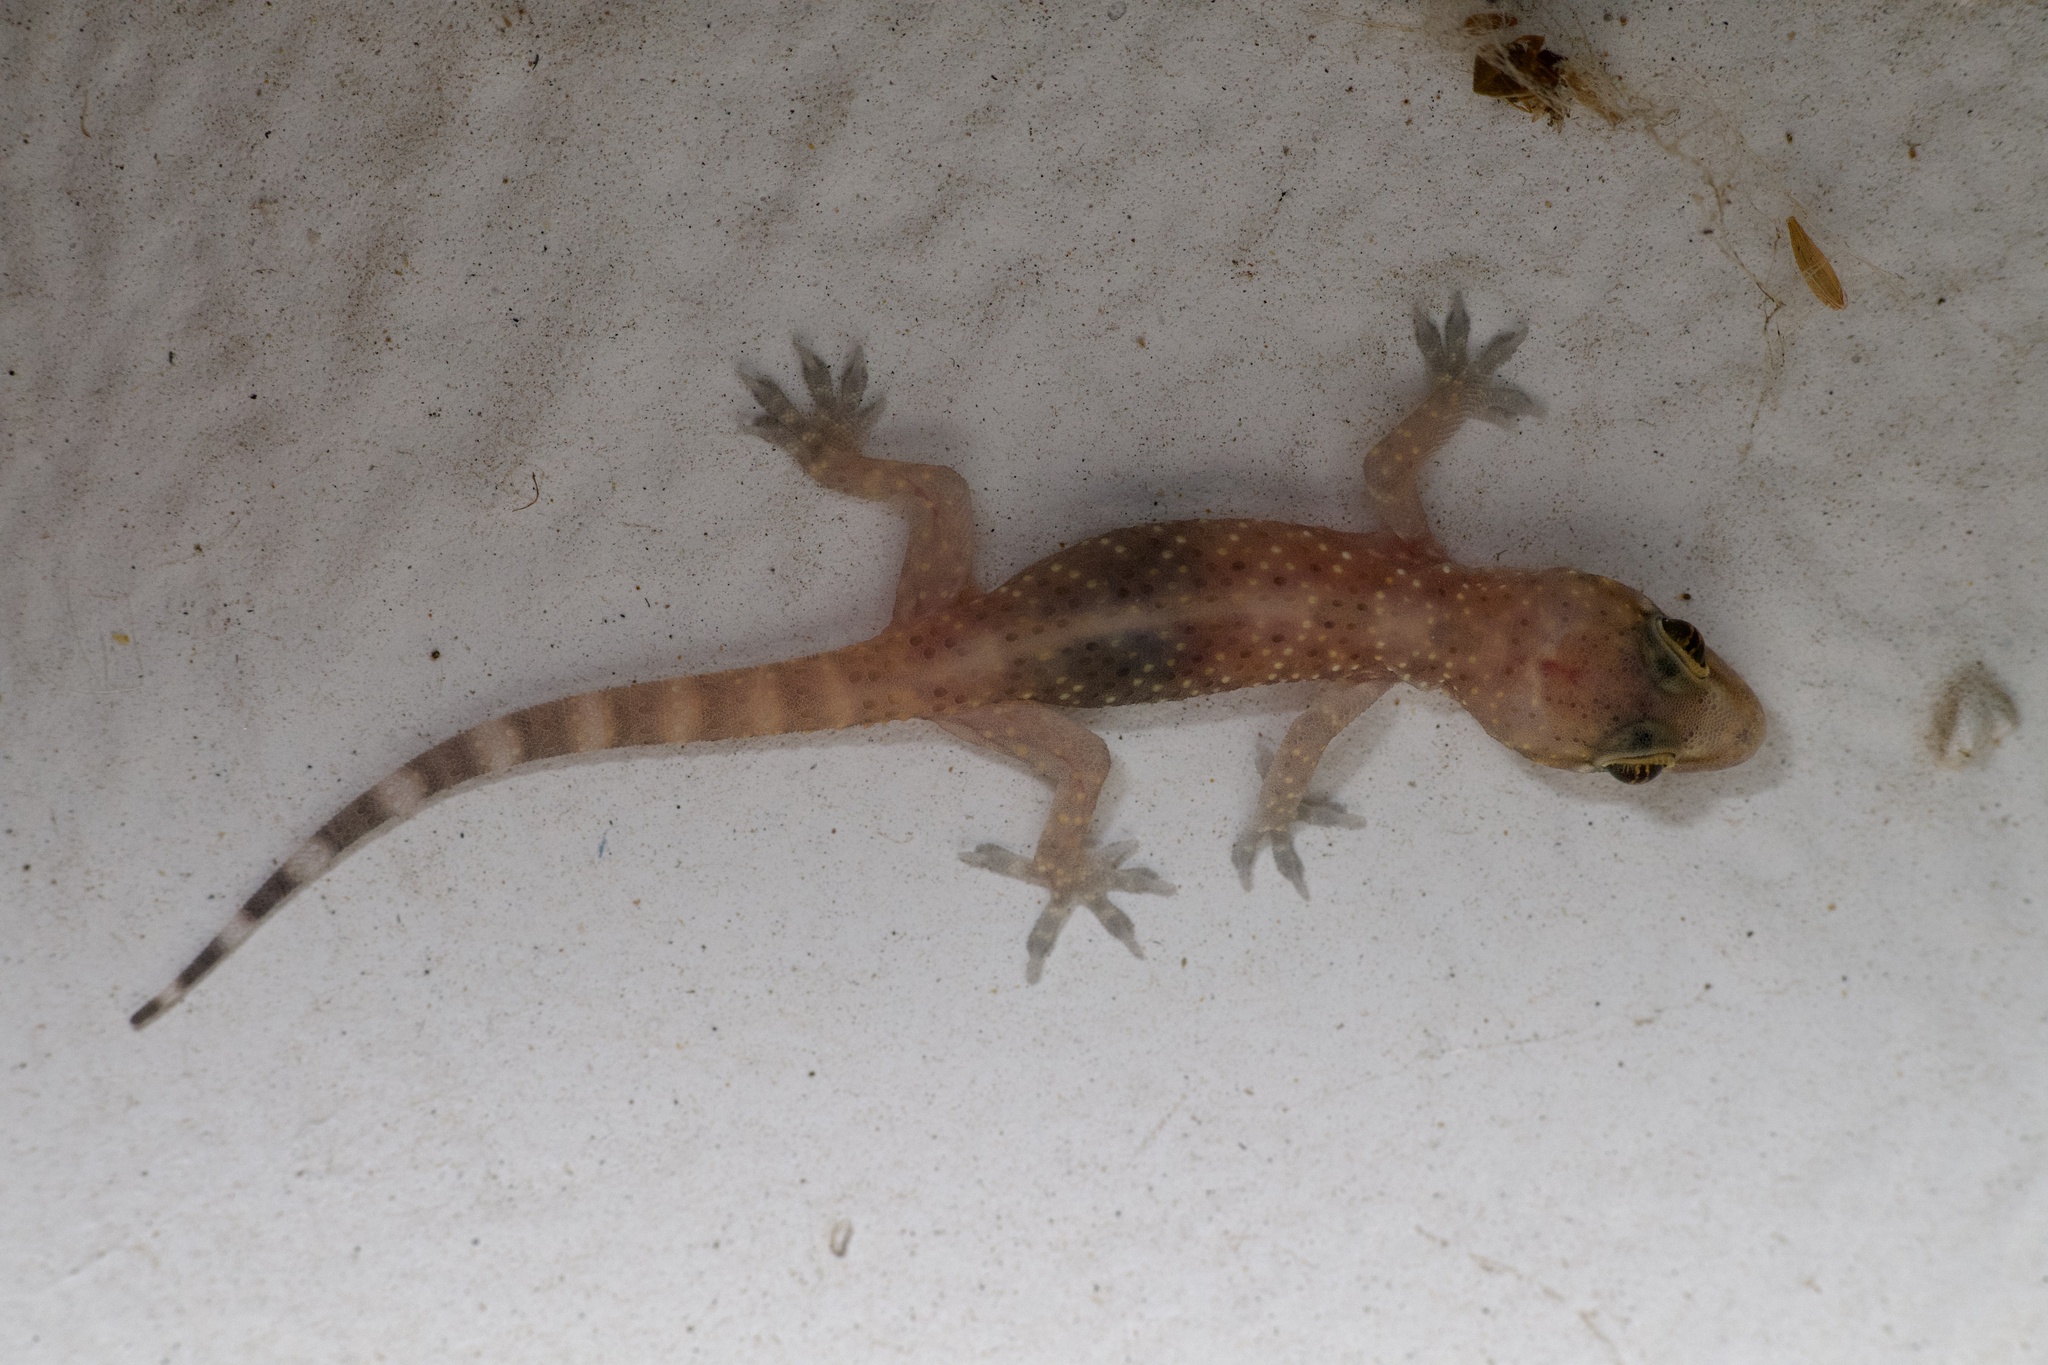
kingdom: Animalia
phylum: Chordata
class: Squamata
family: Gekkonidae
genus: Hemidactylus
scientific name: Hemidactylus turcicus
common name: Turkish gecko
